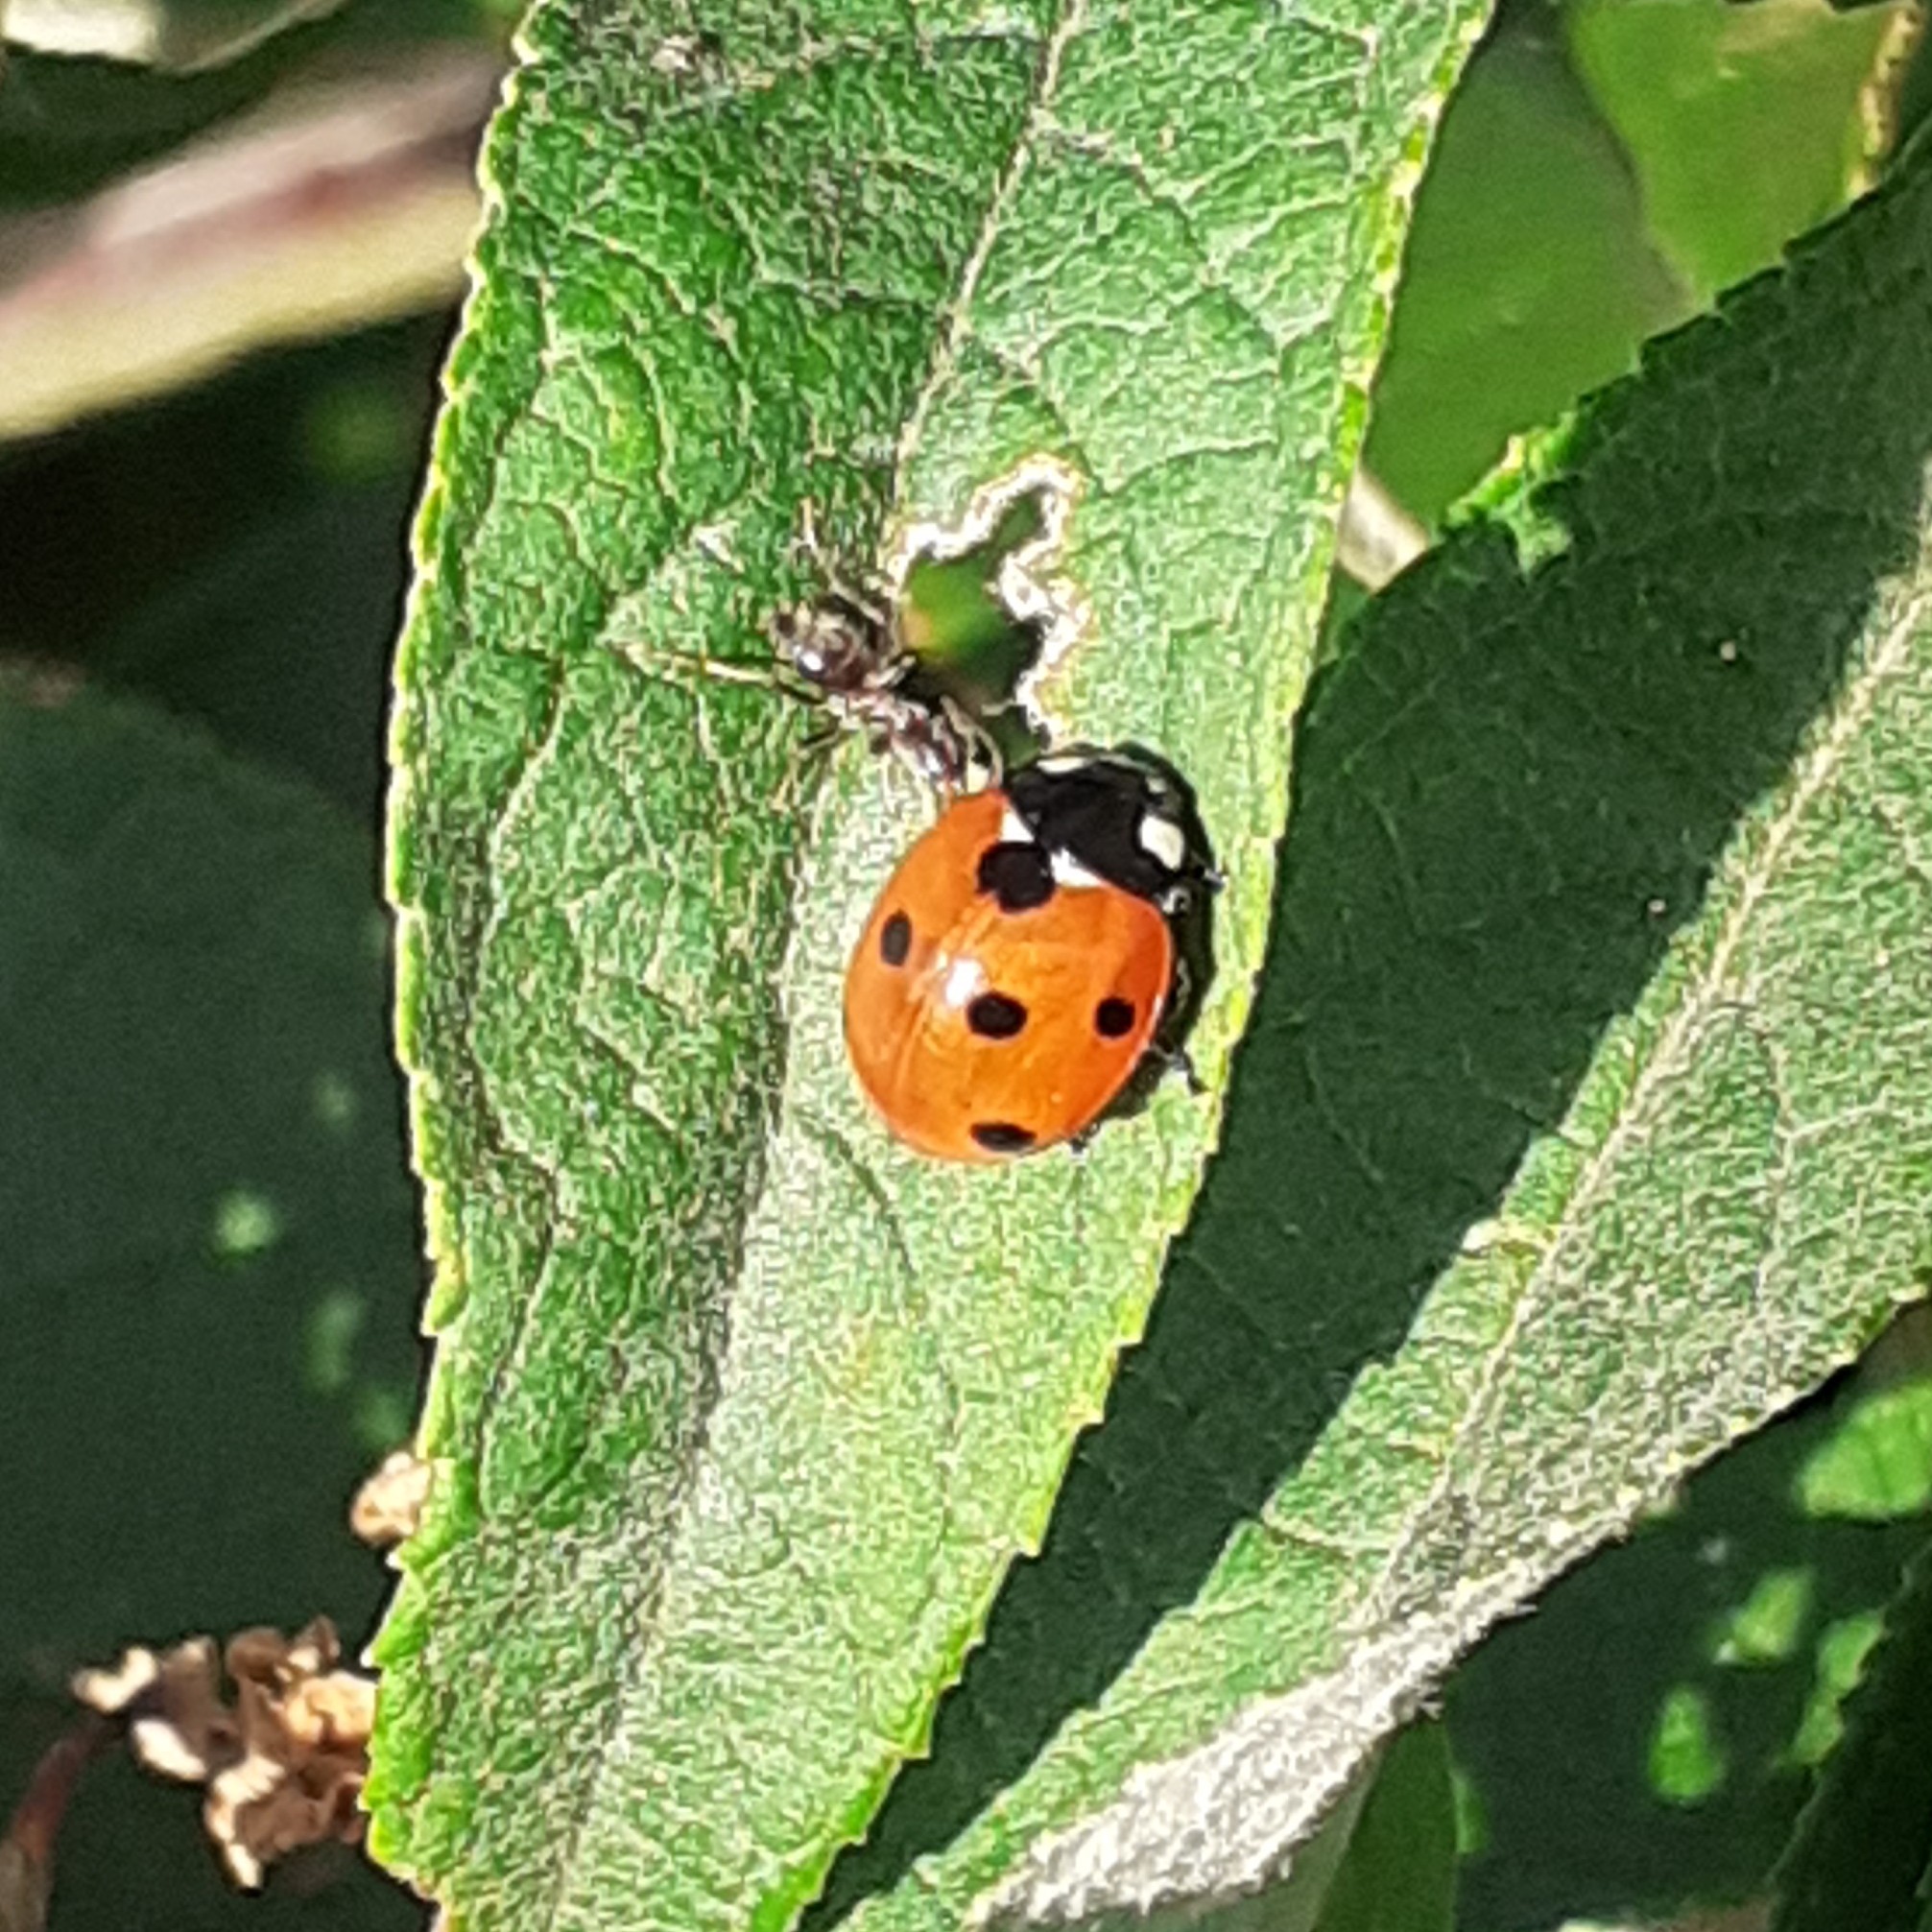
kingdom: Animalia
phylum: Arthropoda
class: Insecta
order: Coleoptera
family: Coccinellidae
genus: Coccinella
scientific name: Coccinella septempunctata
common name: Sevenspotted lady beetle
